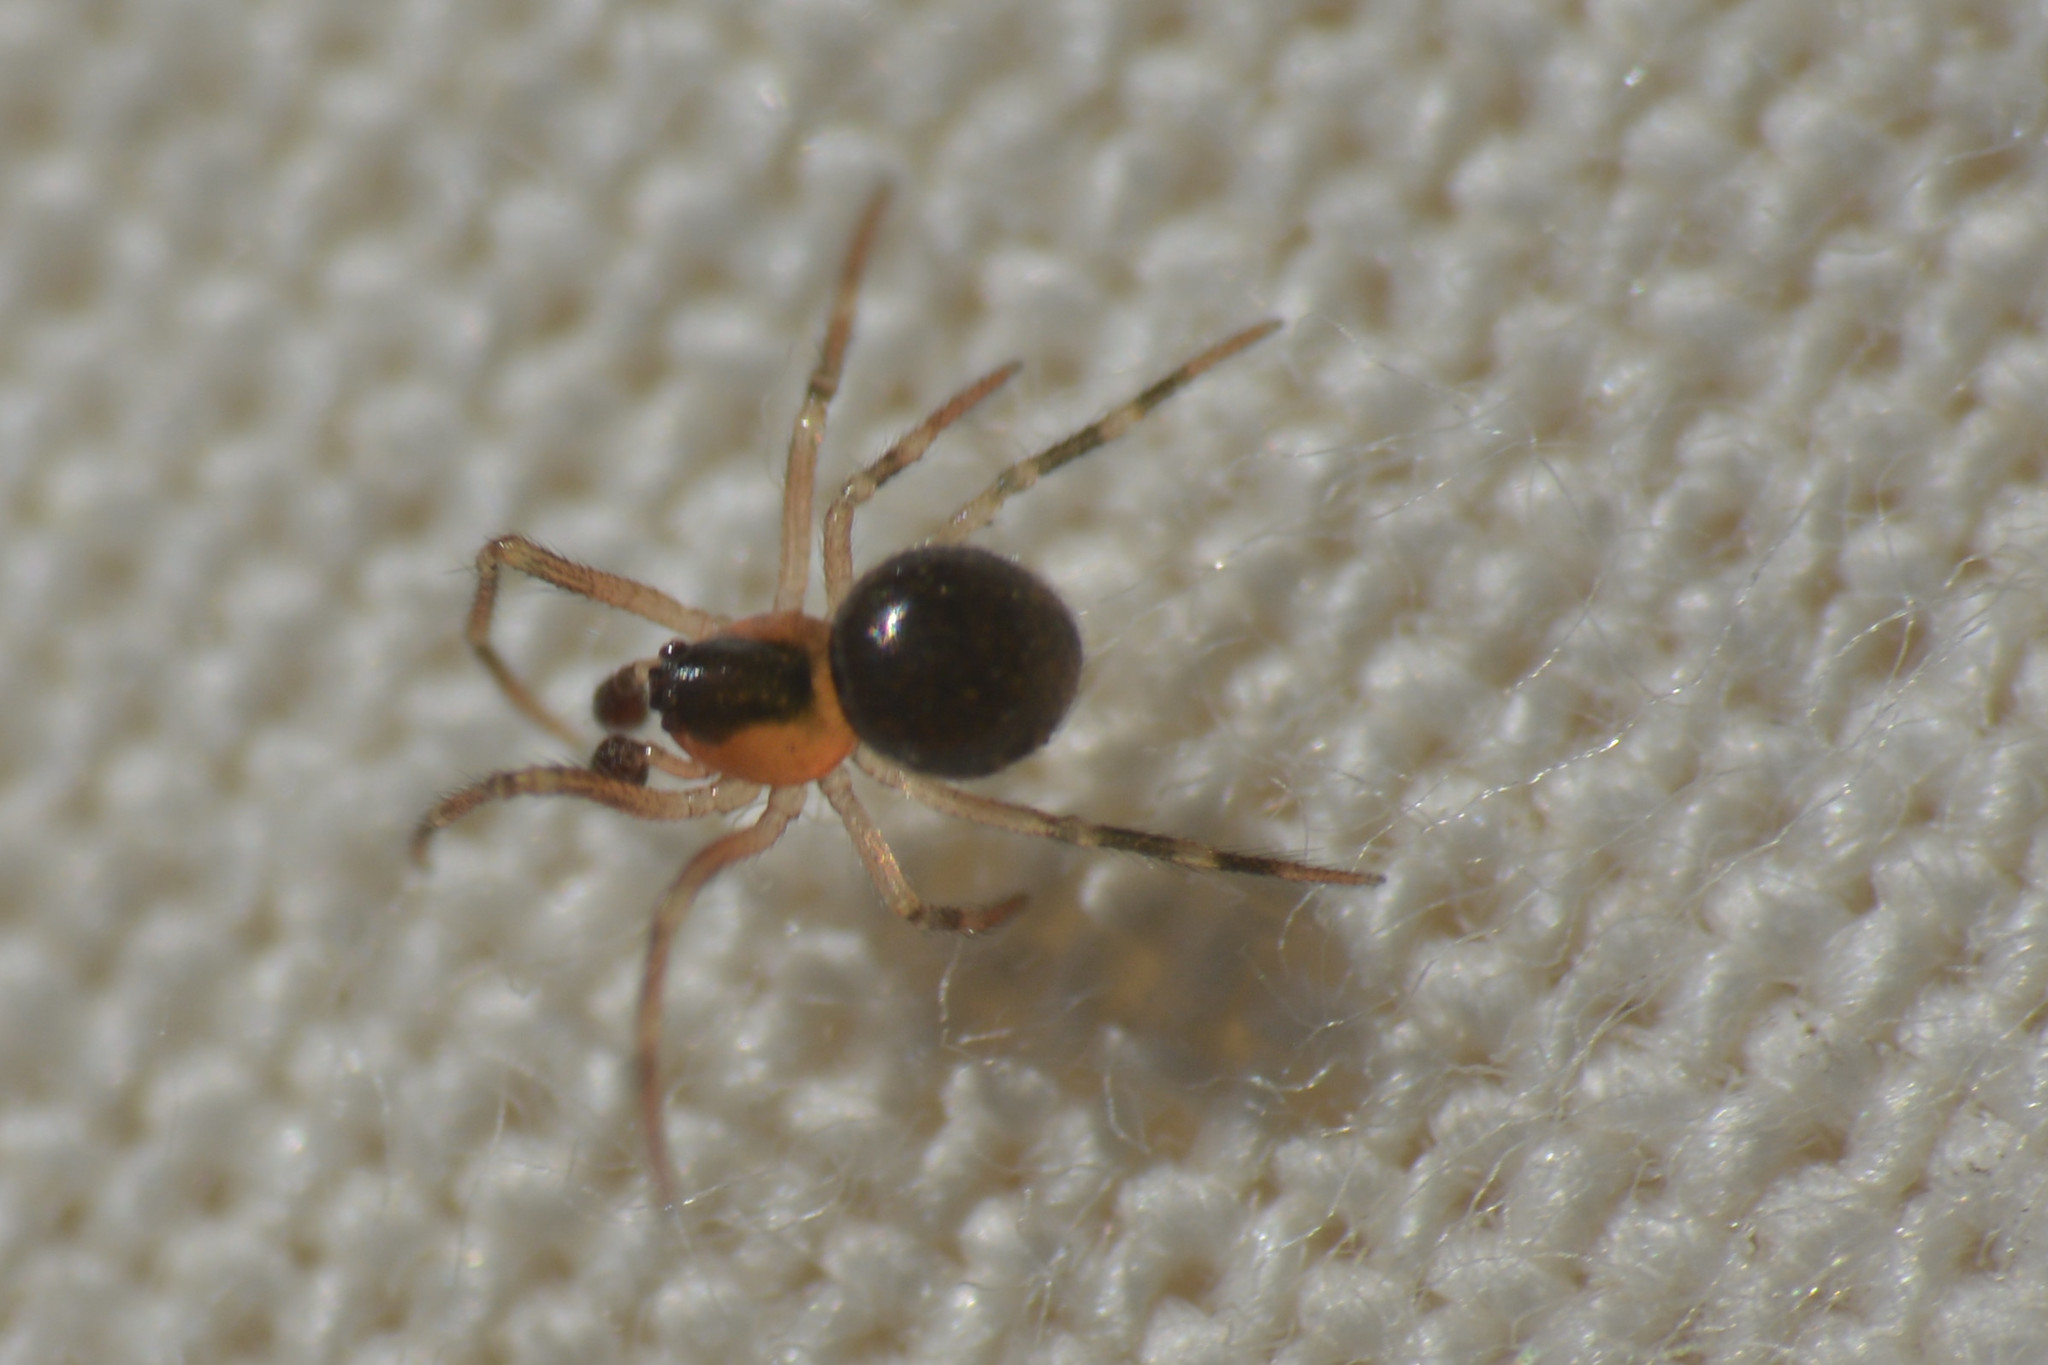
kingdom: Animalia
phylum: Arthropoda
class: Arachnida
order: Araneae
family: Theridiidae
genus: Paidiscura
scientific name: Paidiscura pallens
